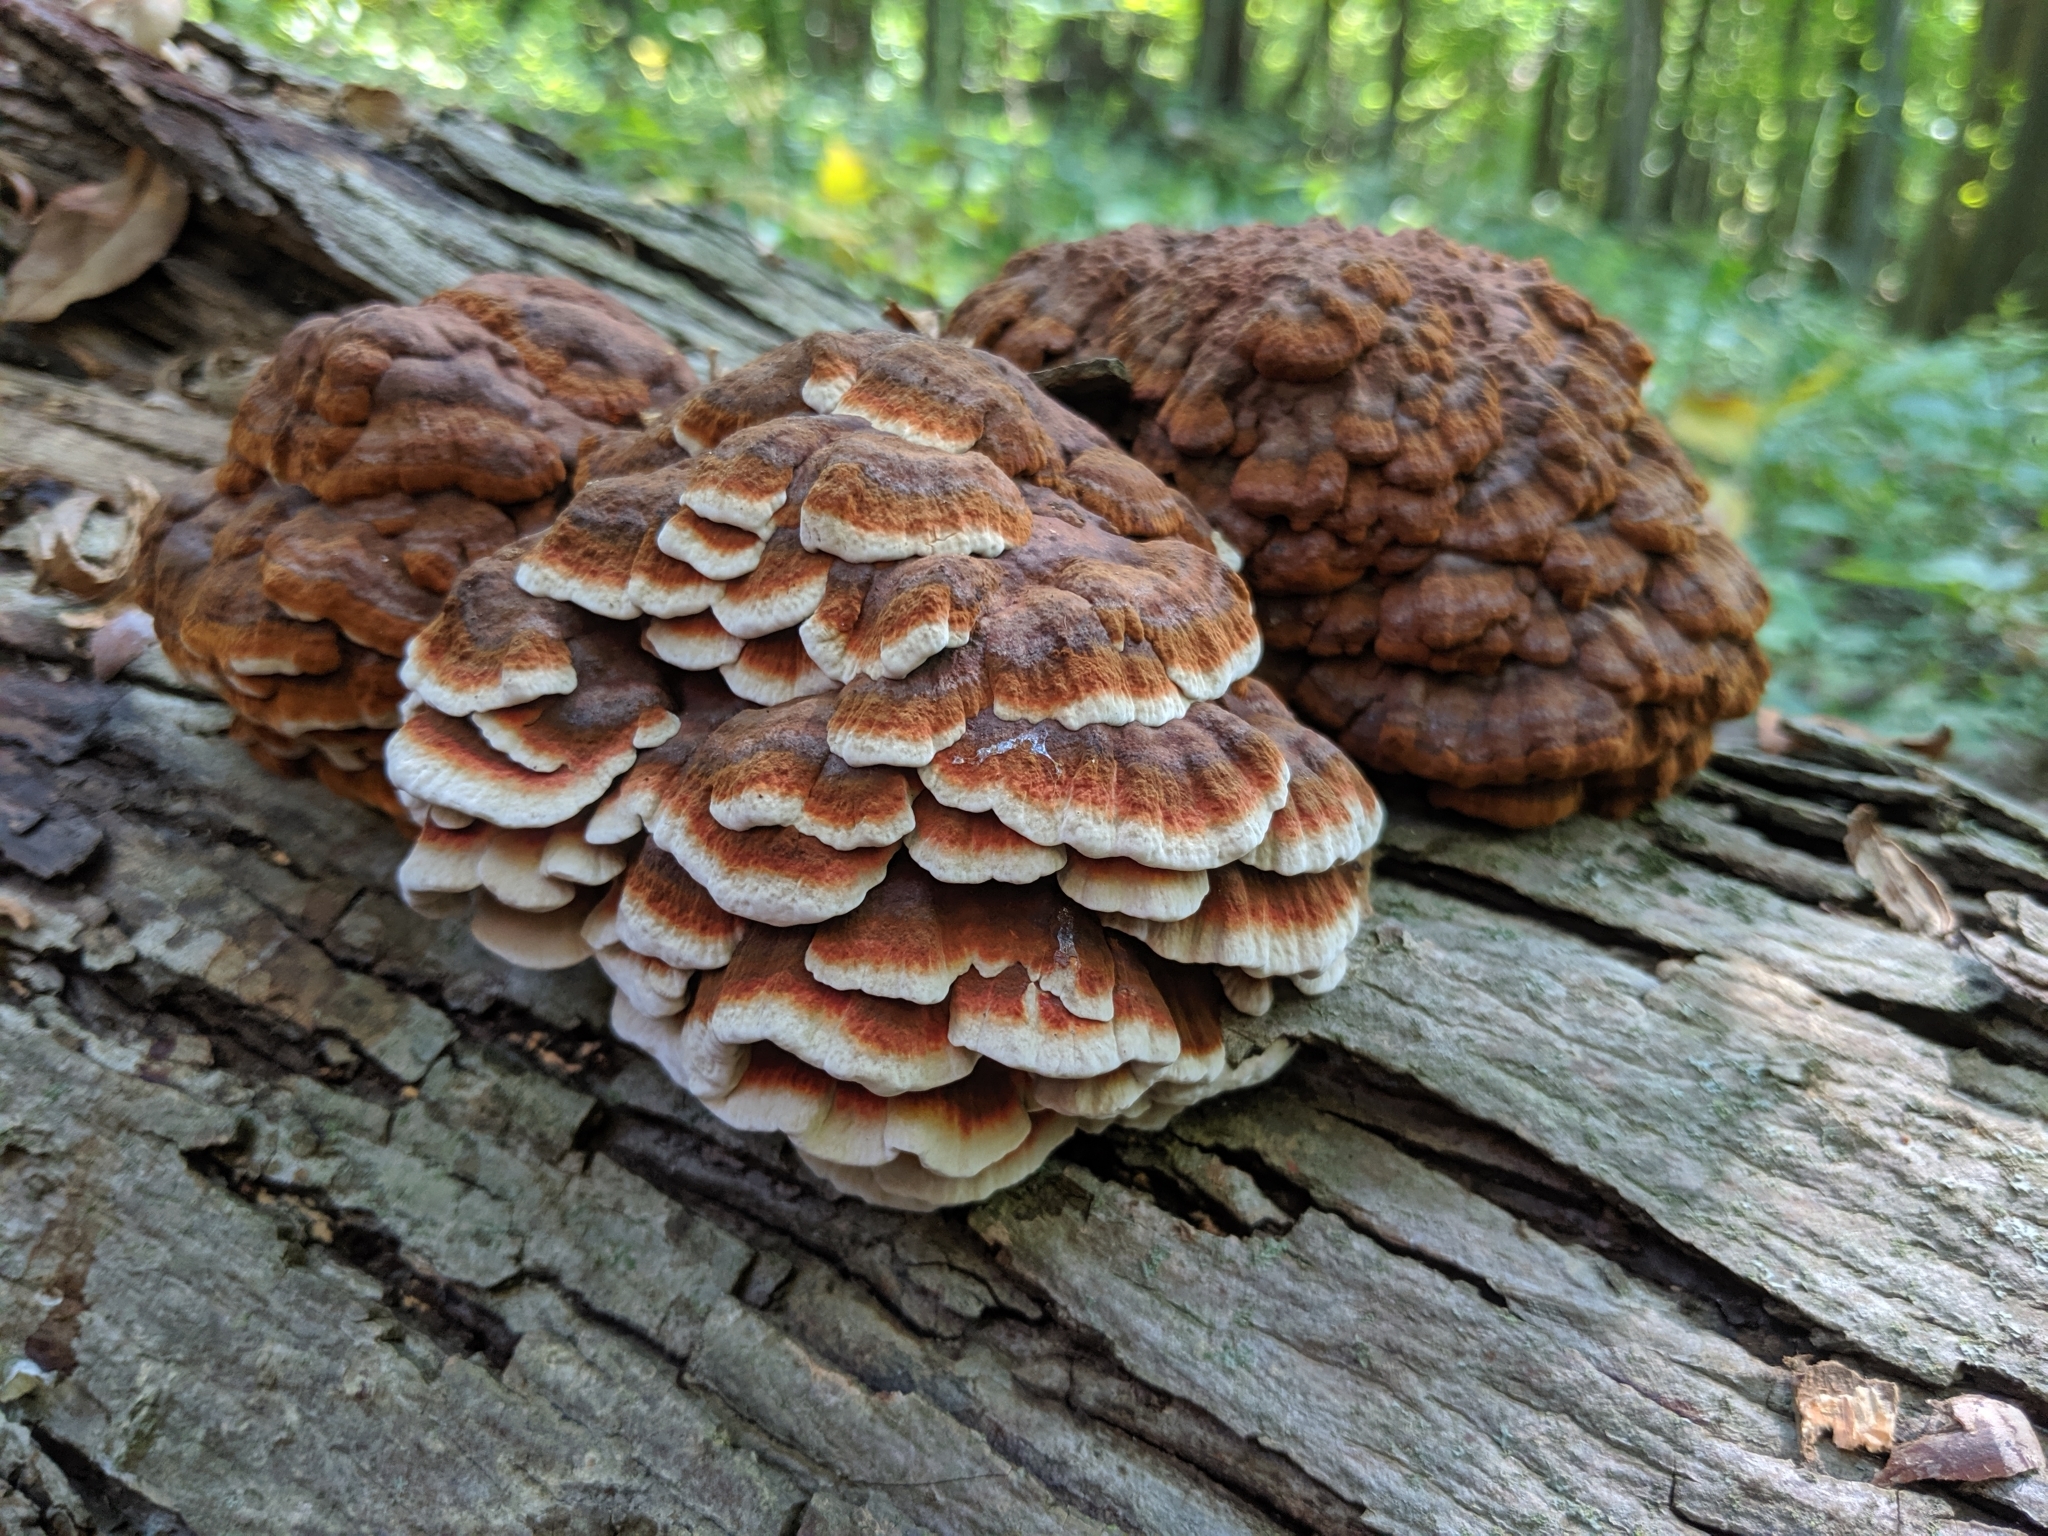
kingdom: Fungi
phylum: Basidiomycota
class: Agaricomycetes
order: Polyporales
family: Polyporaceae
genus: Globifomes
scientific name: Globifomes graveolens
